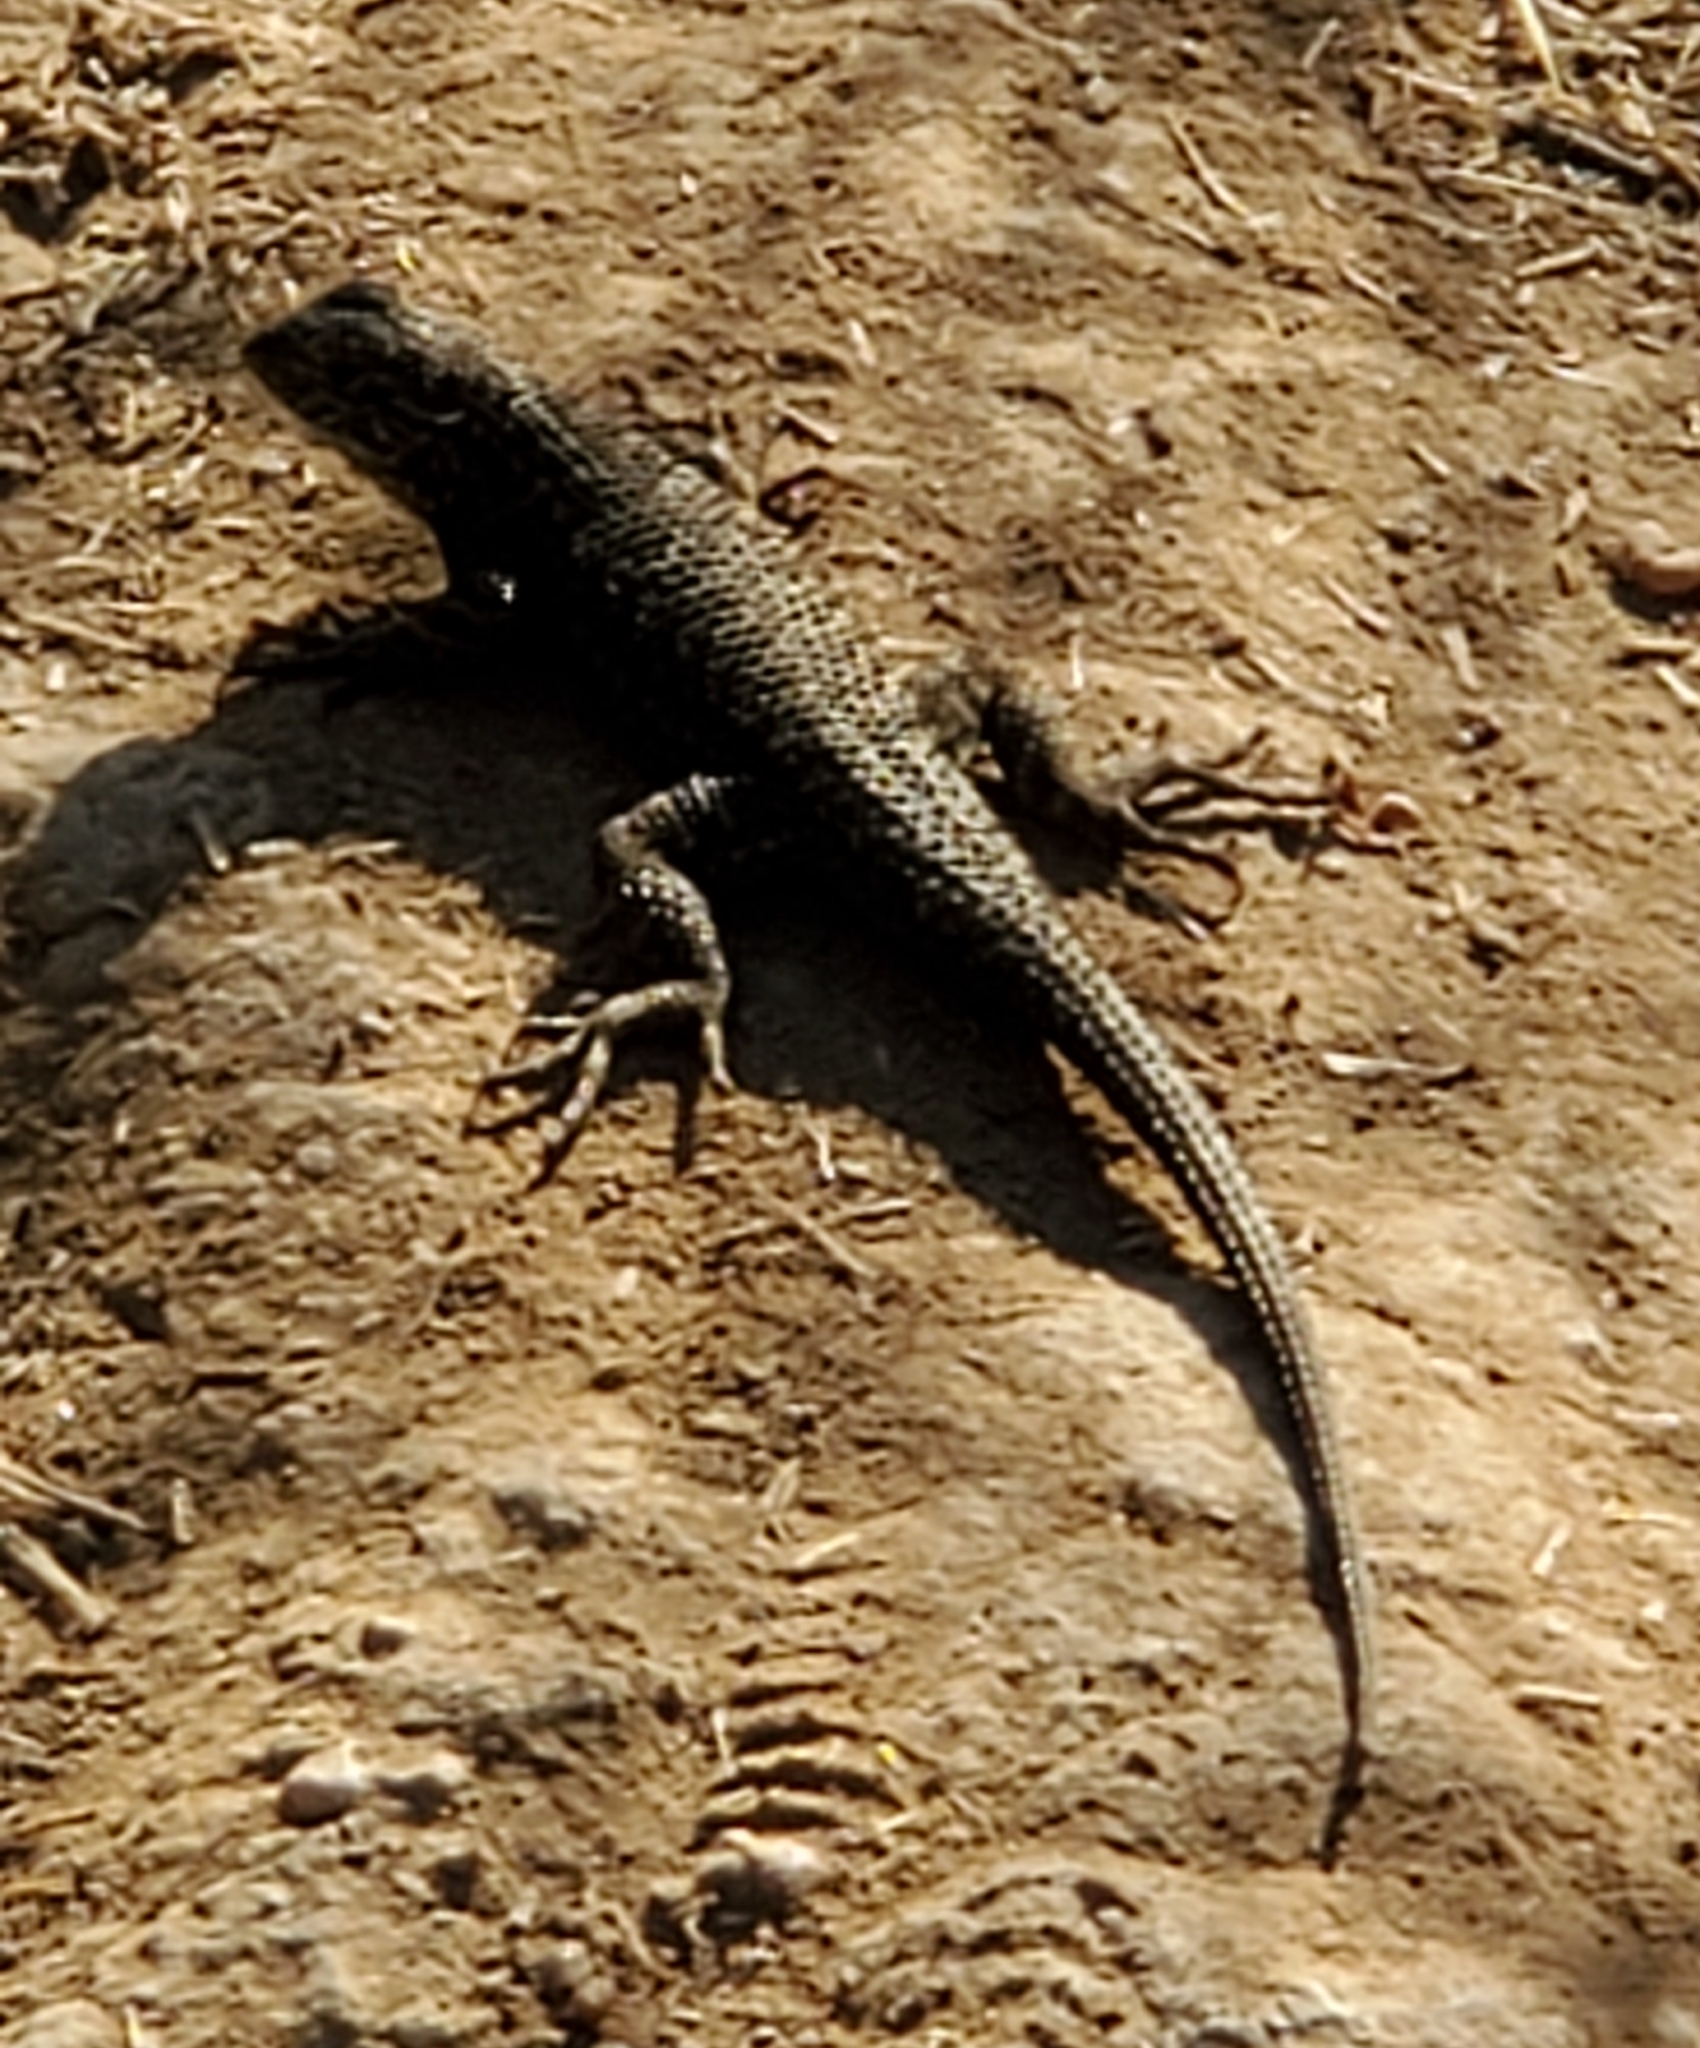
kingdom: Animalia
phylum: Chordata
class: Squamata
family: Phrynosomatidae
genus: Sceloporus
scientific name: Sceloporus occidentalis
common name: Western fence lizard
